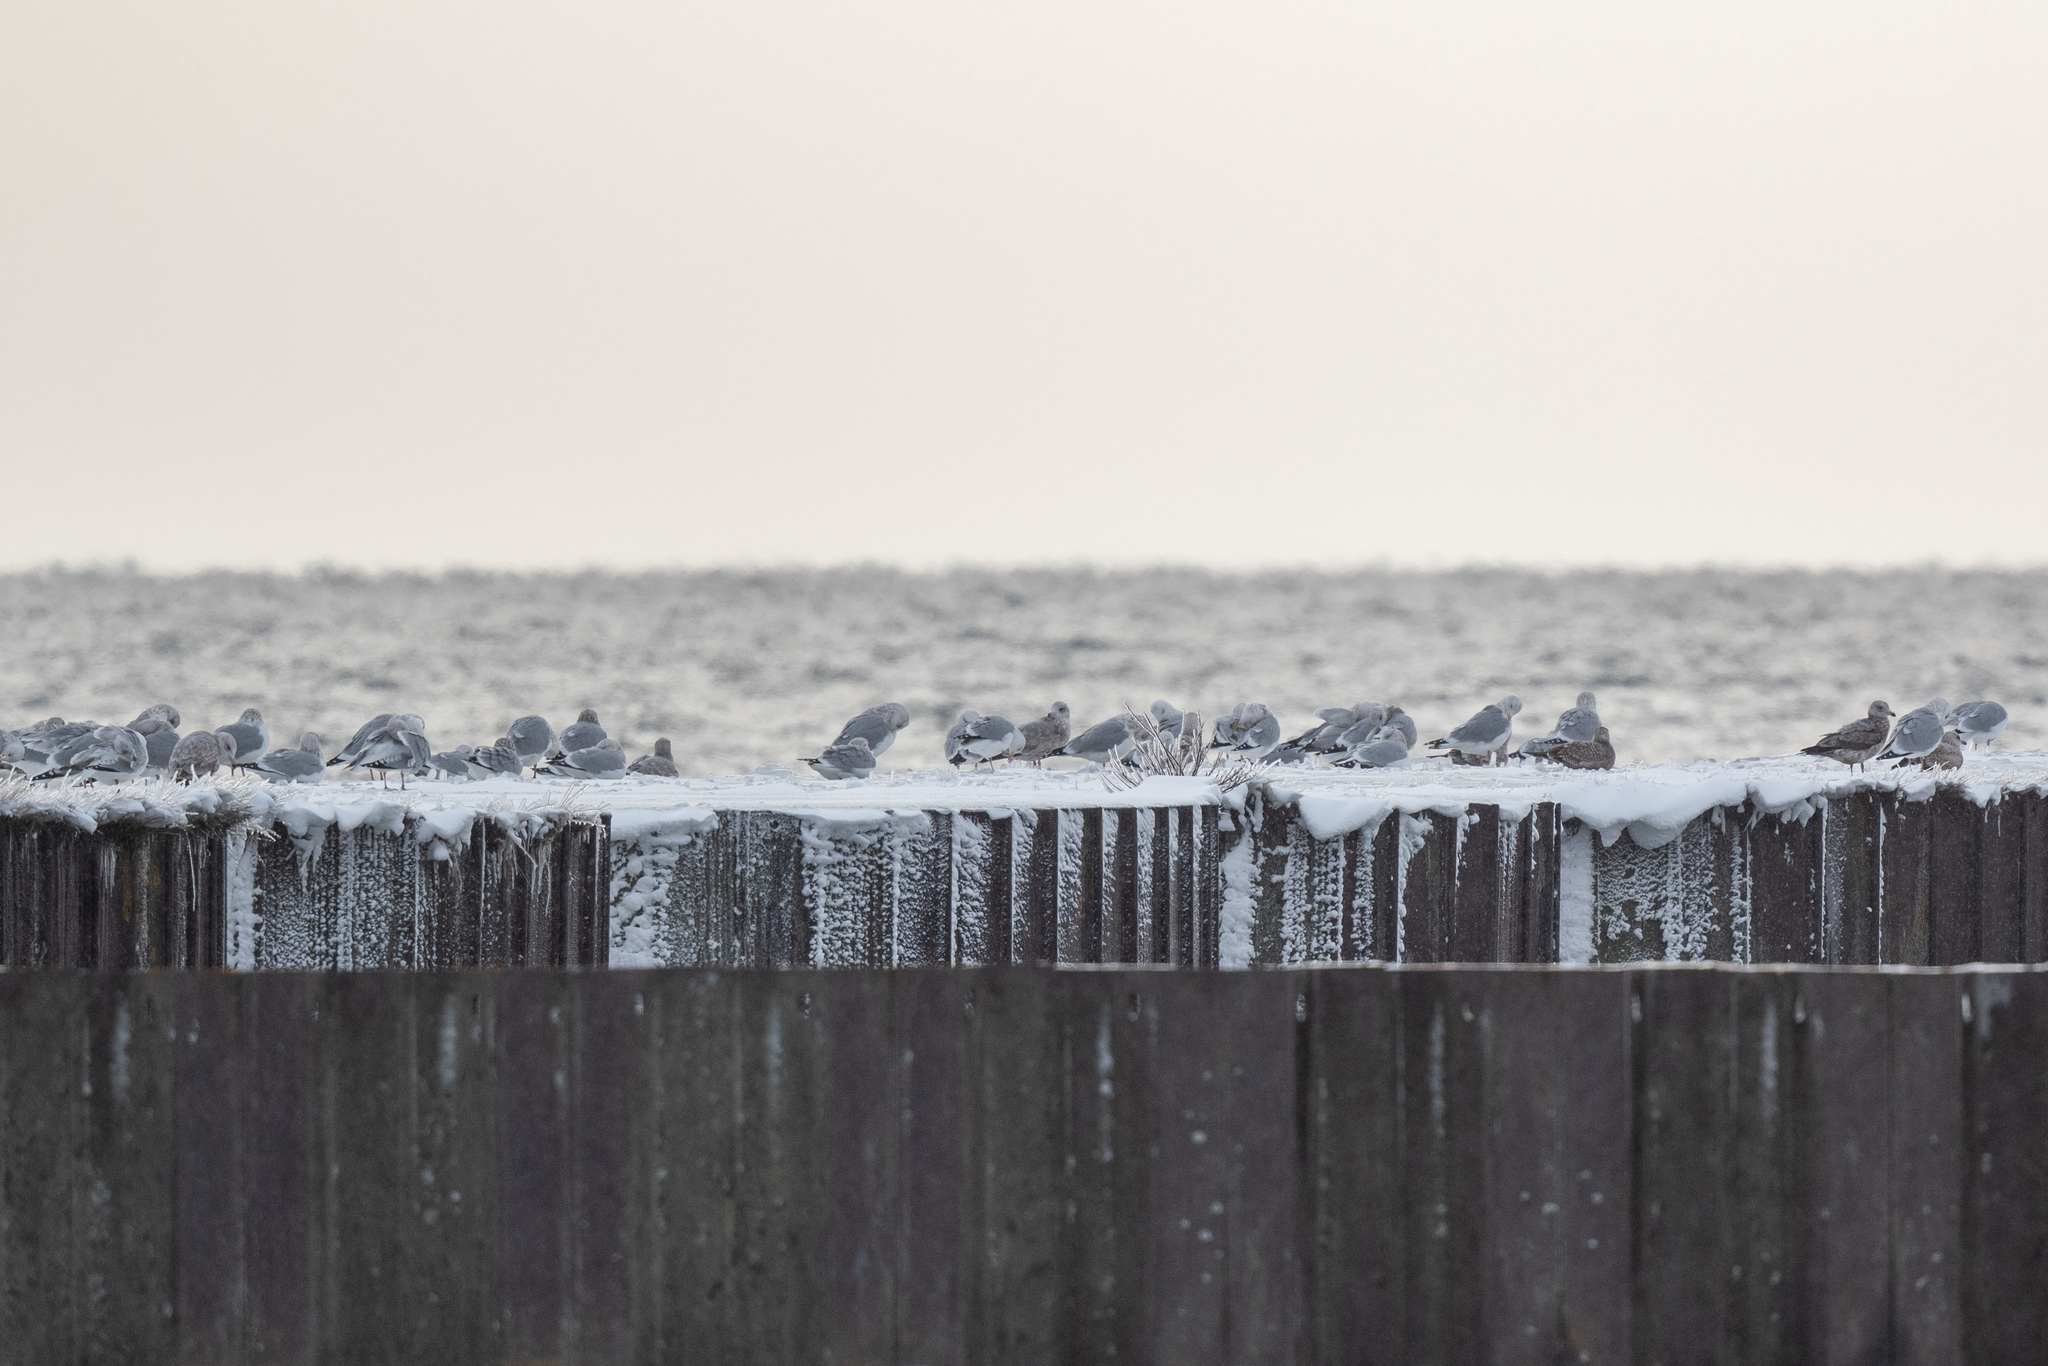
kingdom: Animalia
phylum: Chordata
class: Aves
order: Charadriiformes
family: Laridae
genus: Larus
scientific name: Larus argentatus
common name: Herring gull
